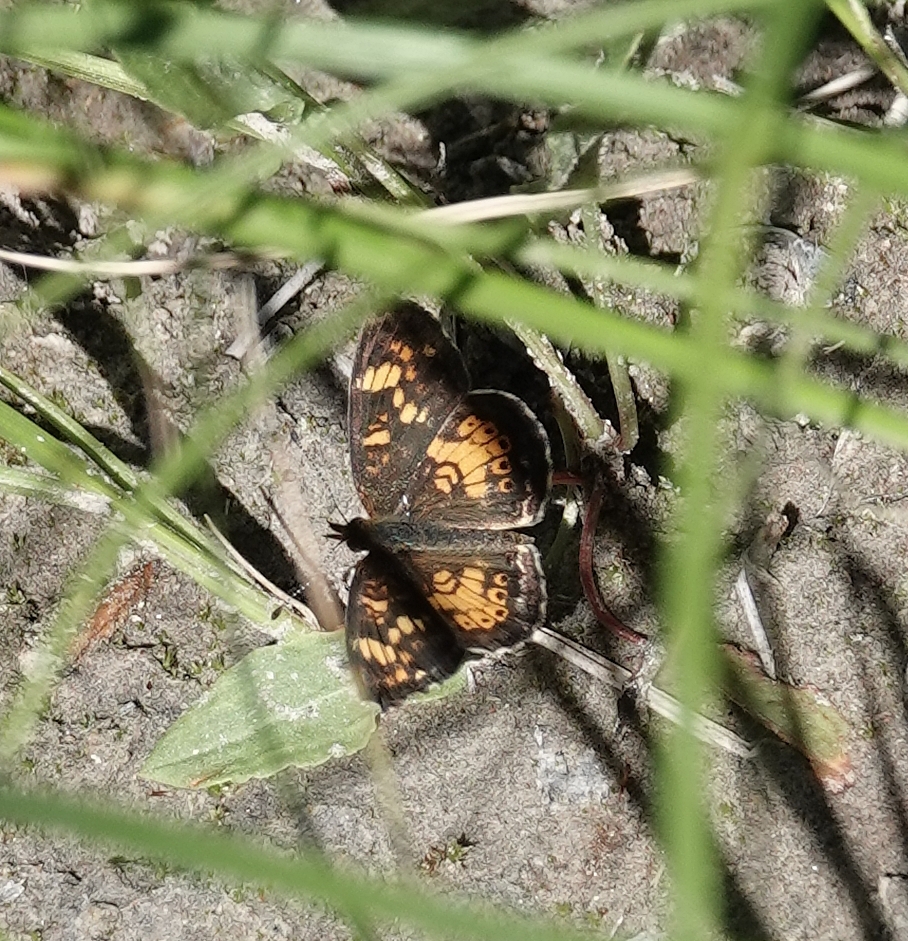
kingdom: Animalia
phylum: Arthropoda
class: Insecta
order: Lepidoptera
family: Nymphalidae
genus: Phyciodes
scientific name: Phyciodes batesii
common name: Tawny crescent
